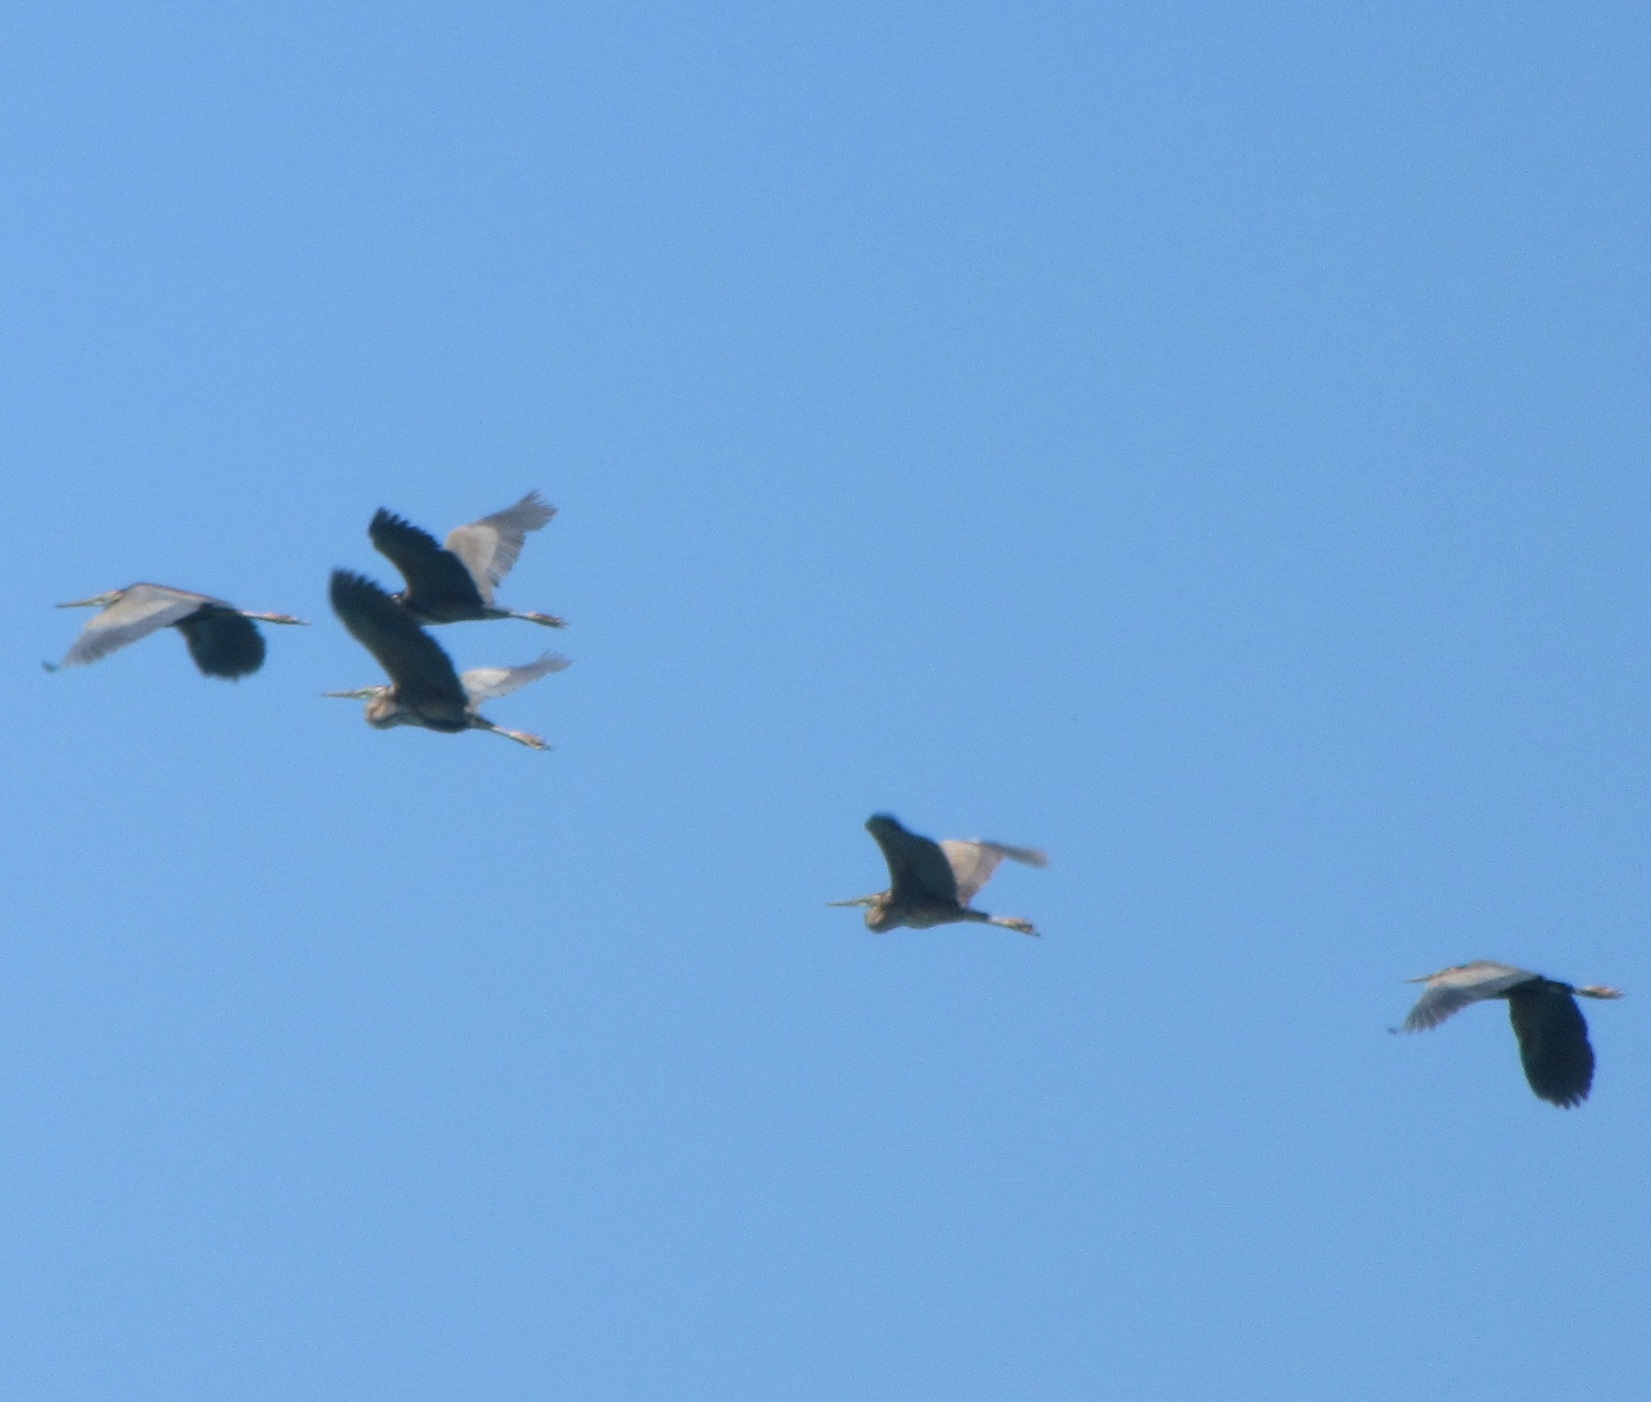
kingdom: Animalia
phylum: Chordata
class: Aves
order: Pelecaniformes
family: Ardeidae
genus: Ardea
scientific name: Ardea purpurea
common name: Purple heron
